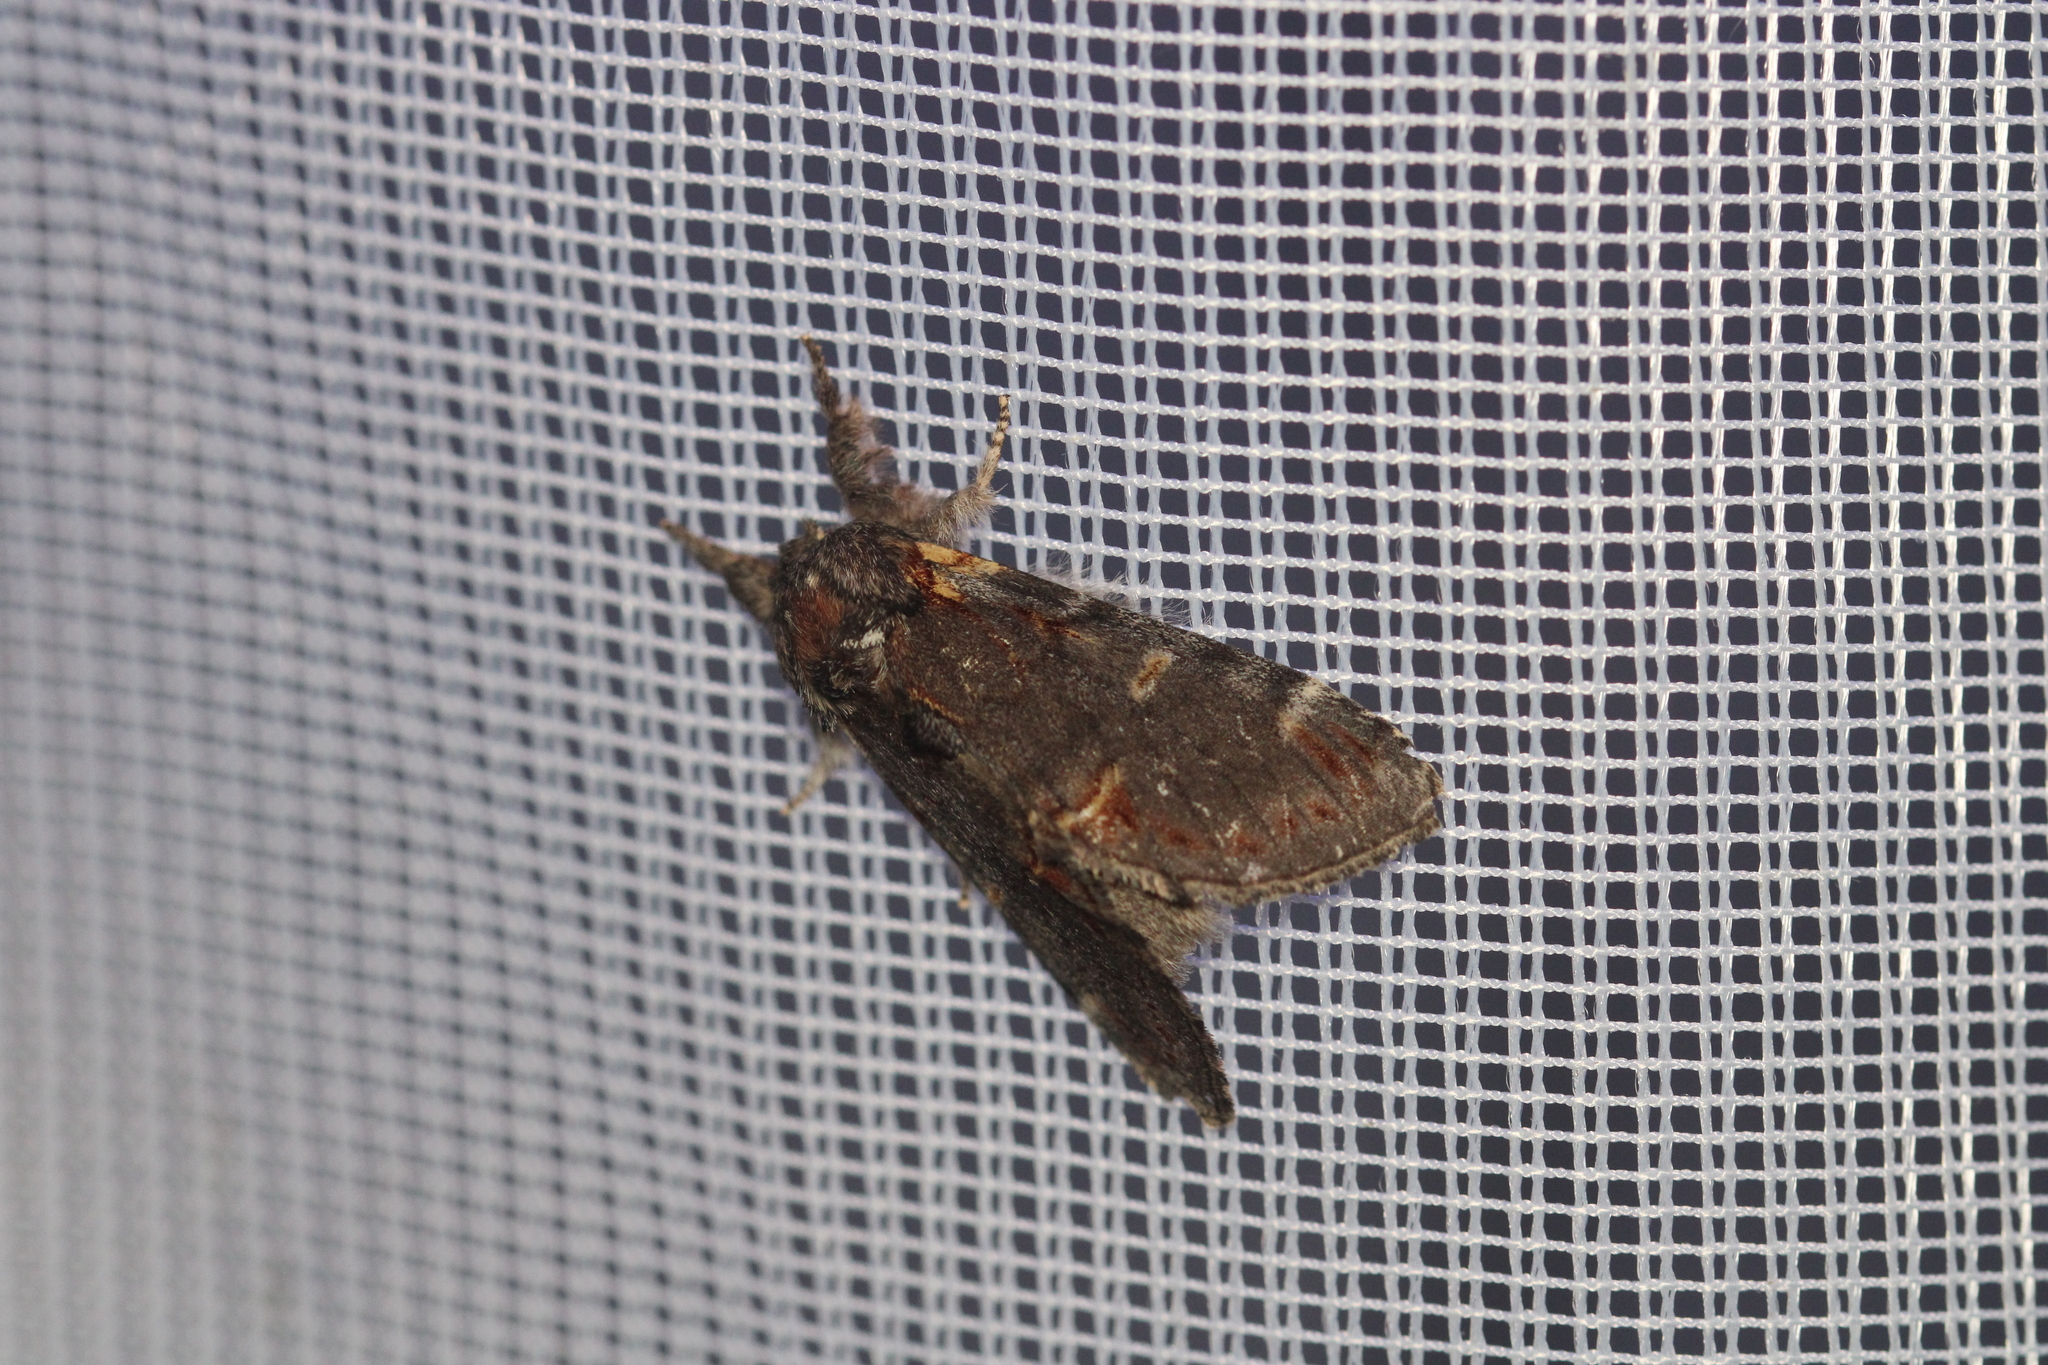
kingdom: Animalia
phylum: Arthropoda
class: Insecta
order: Lepidoptera
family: Notodontidae
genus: Notodonta
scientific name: Notodonta dromedarius
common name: Iron prominent
